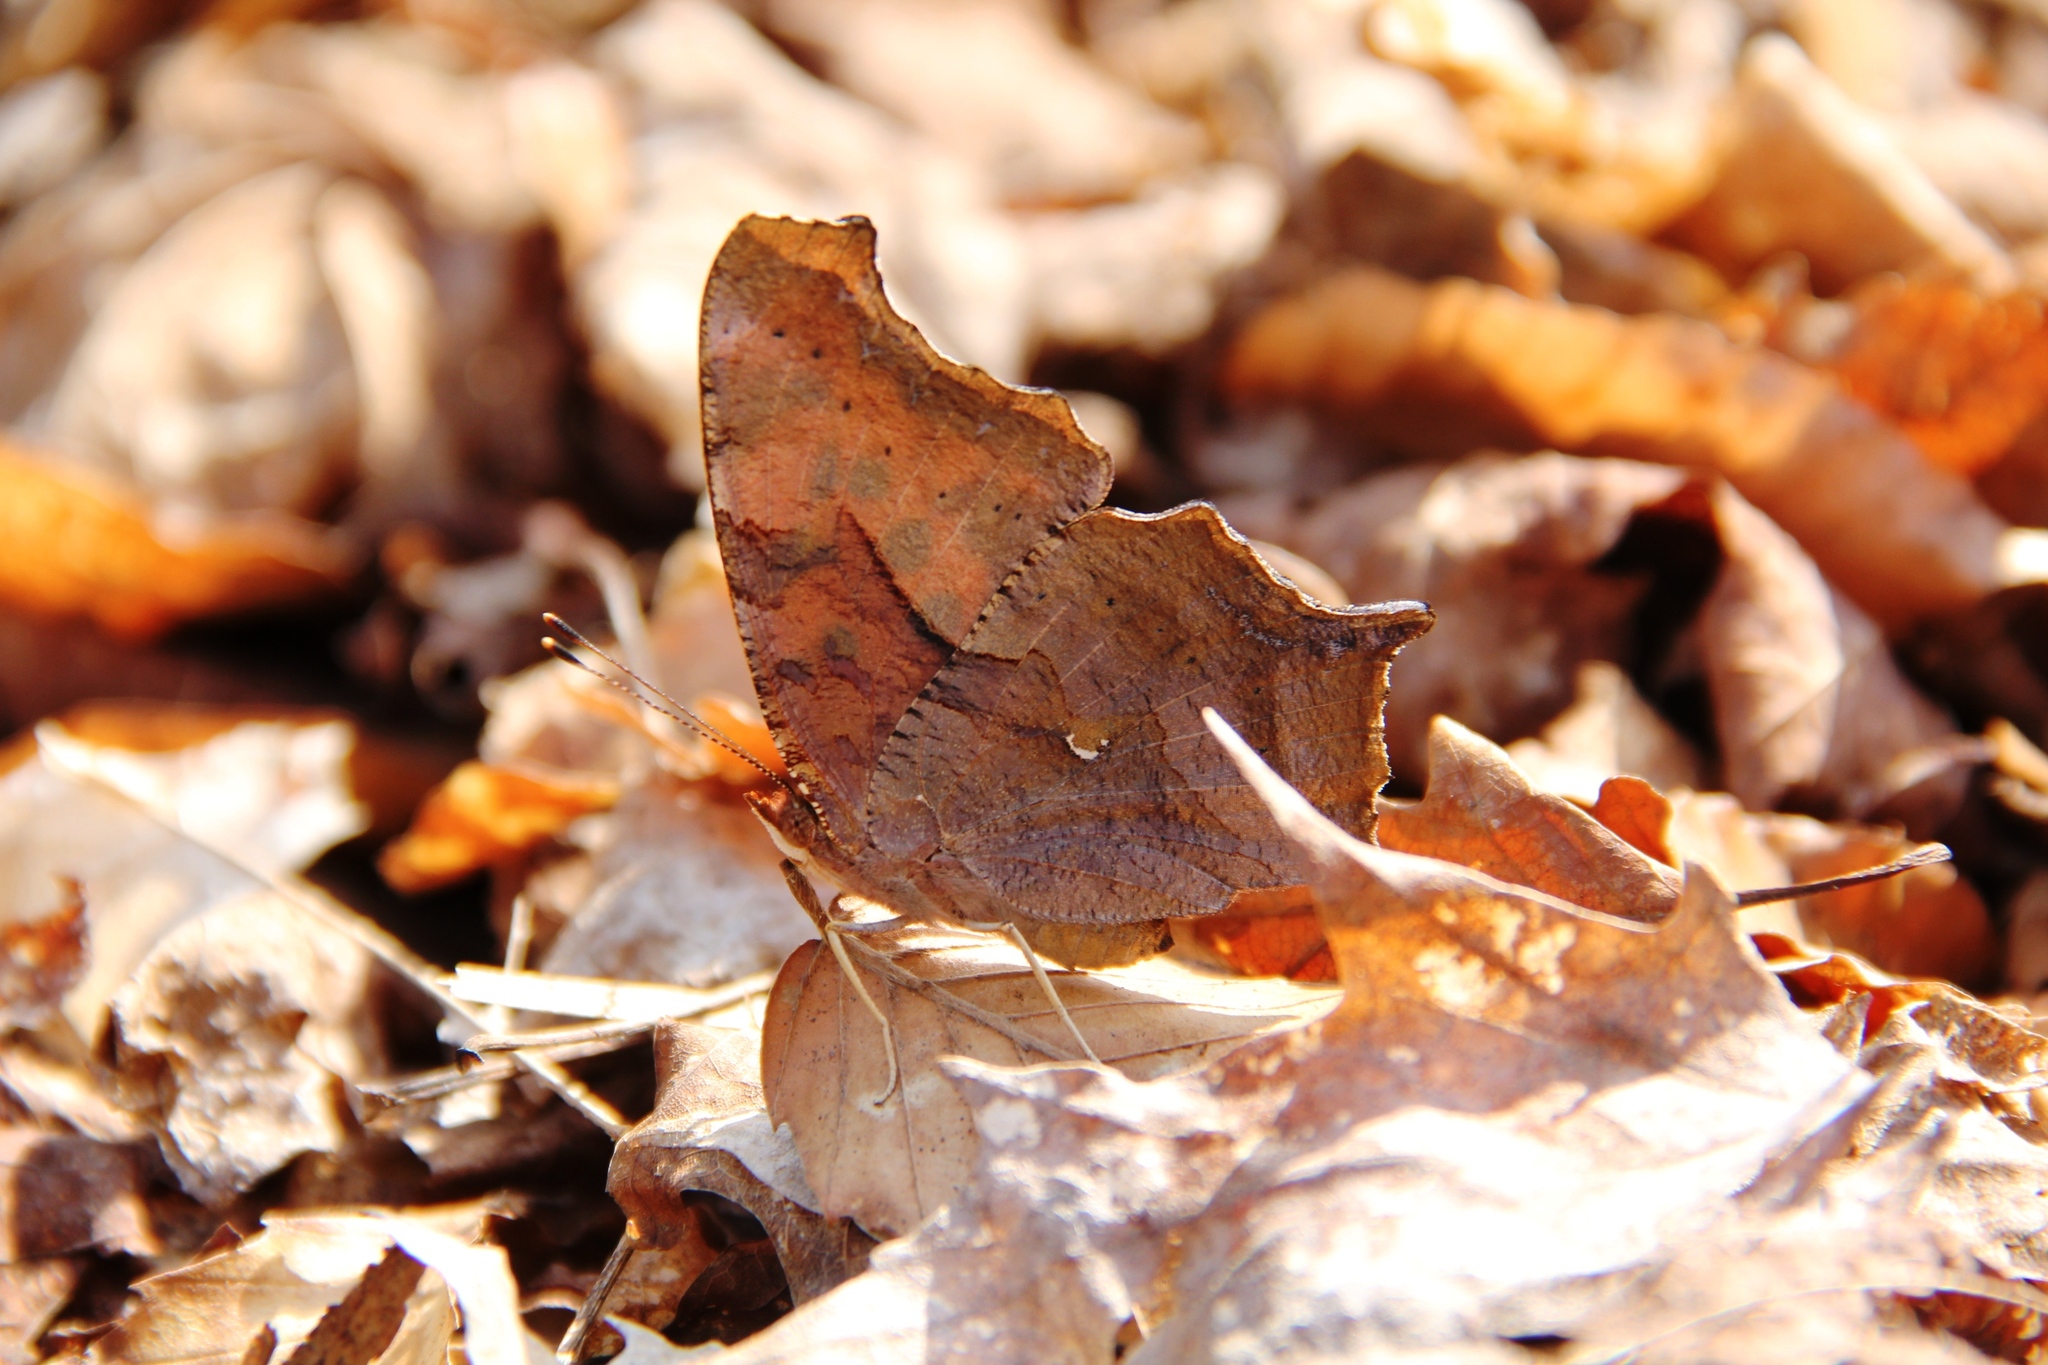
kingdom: Animalia
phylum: Arthropoda
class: Insecta
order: Lepidoptera
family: Nymphalidae
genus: Polygonia
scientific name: Polygonia interrogationis
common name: Question mark
